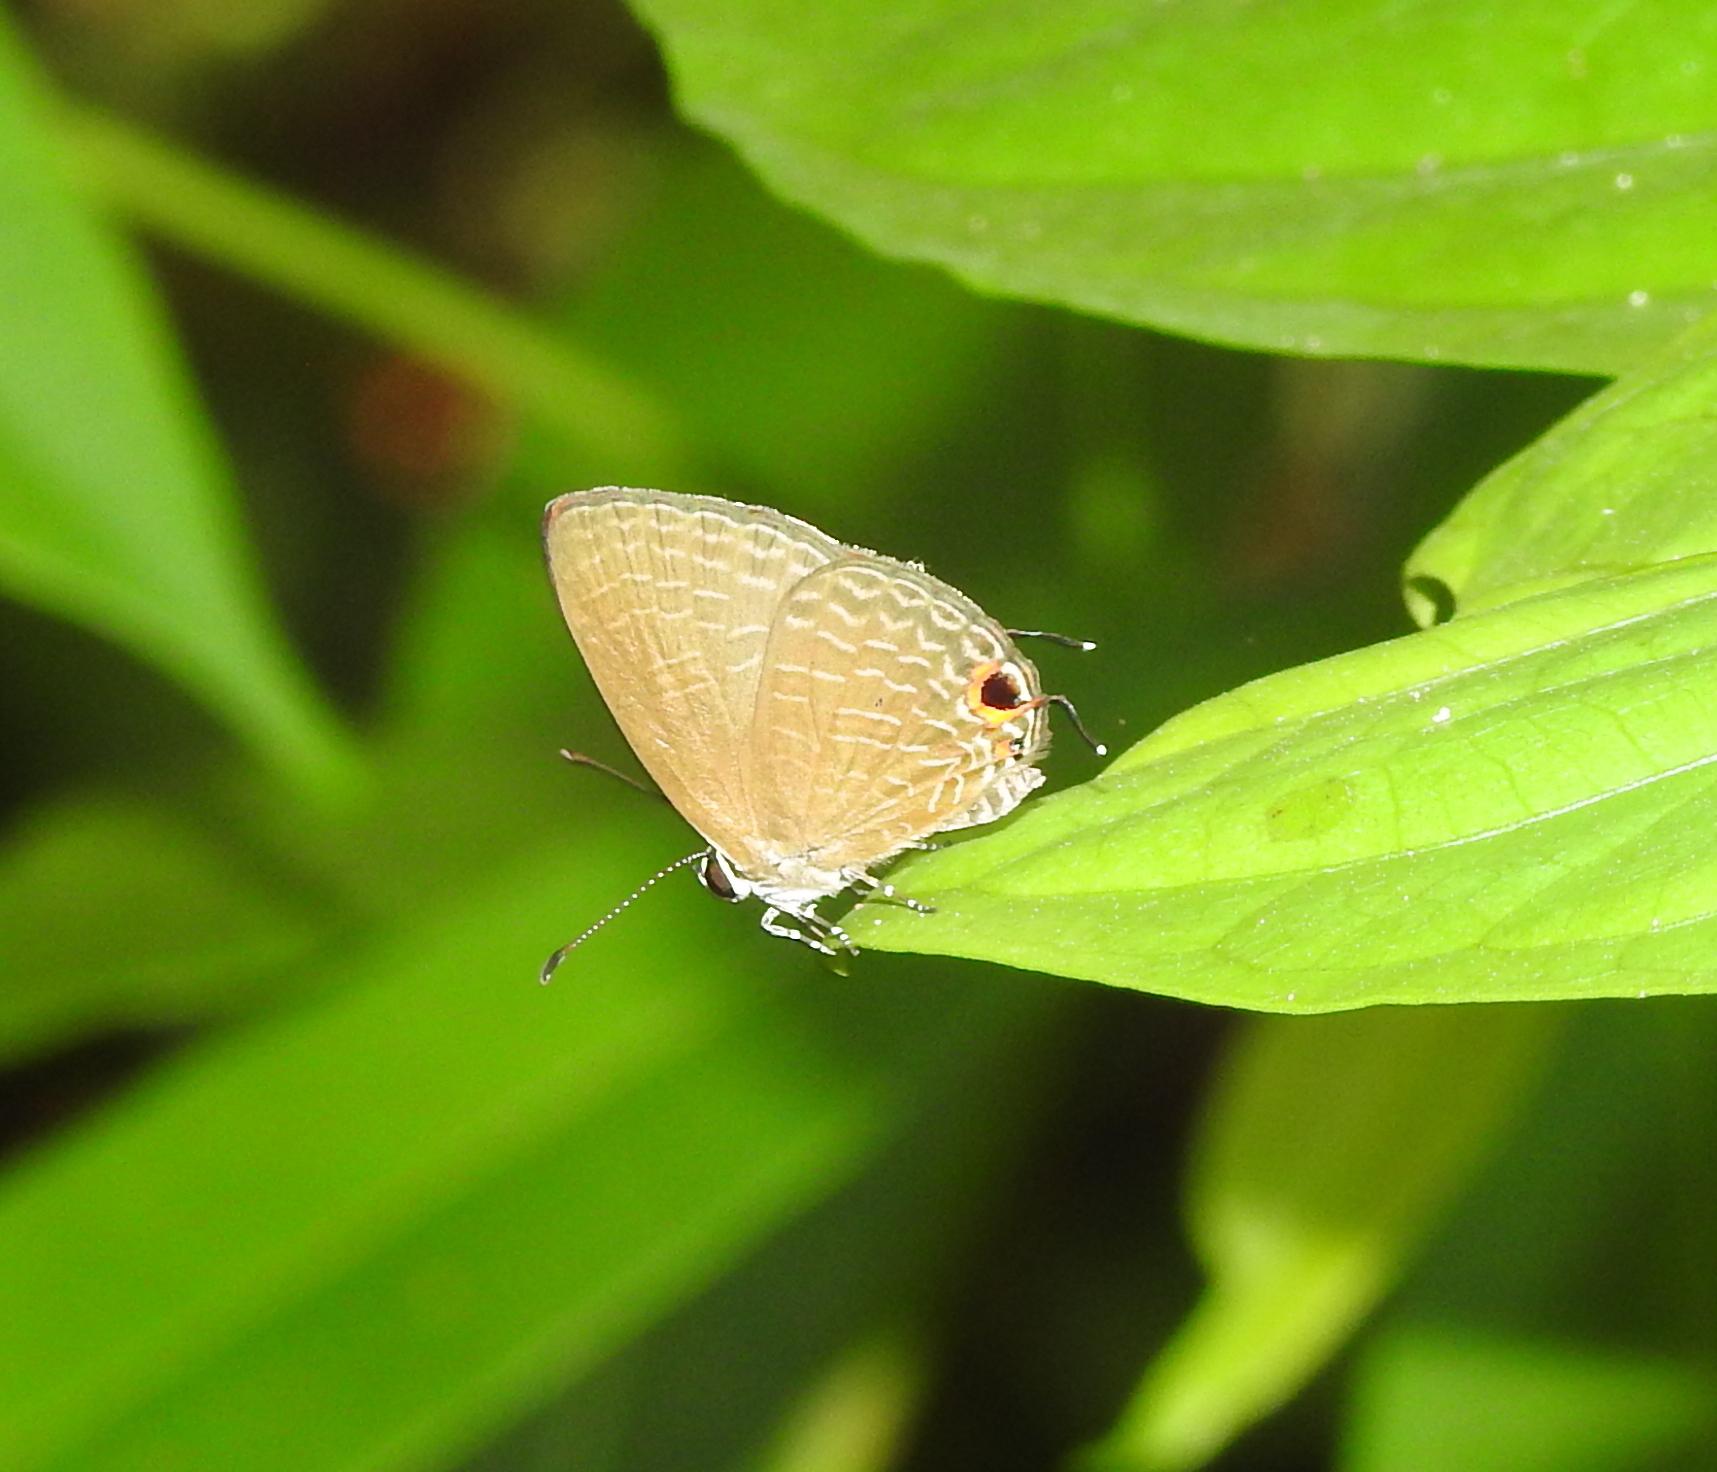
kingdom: Animalia
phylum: Arthropoda
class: Insecta
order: Lepidoptera
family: Lycaenidae
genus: Jamides
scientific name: Jamides bochus
